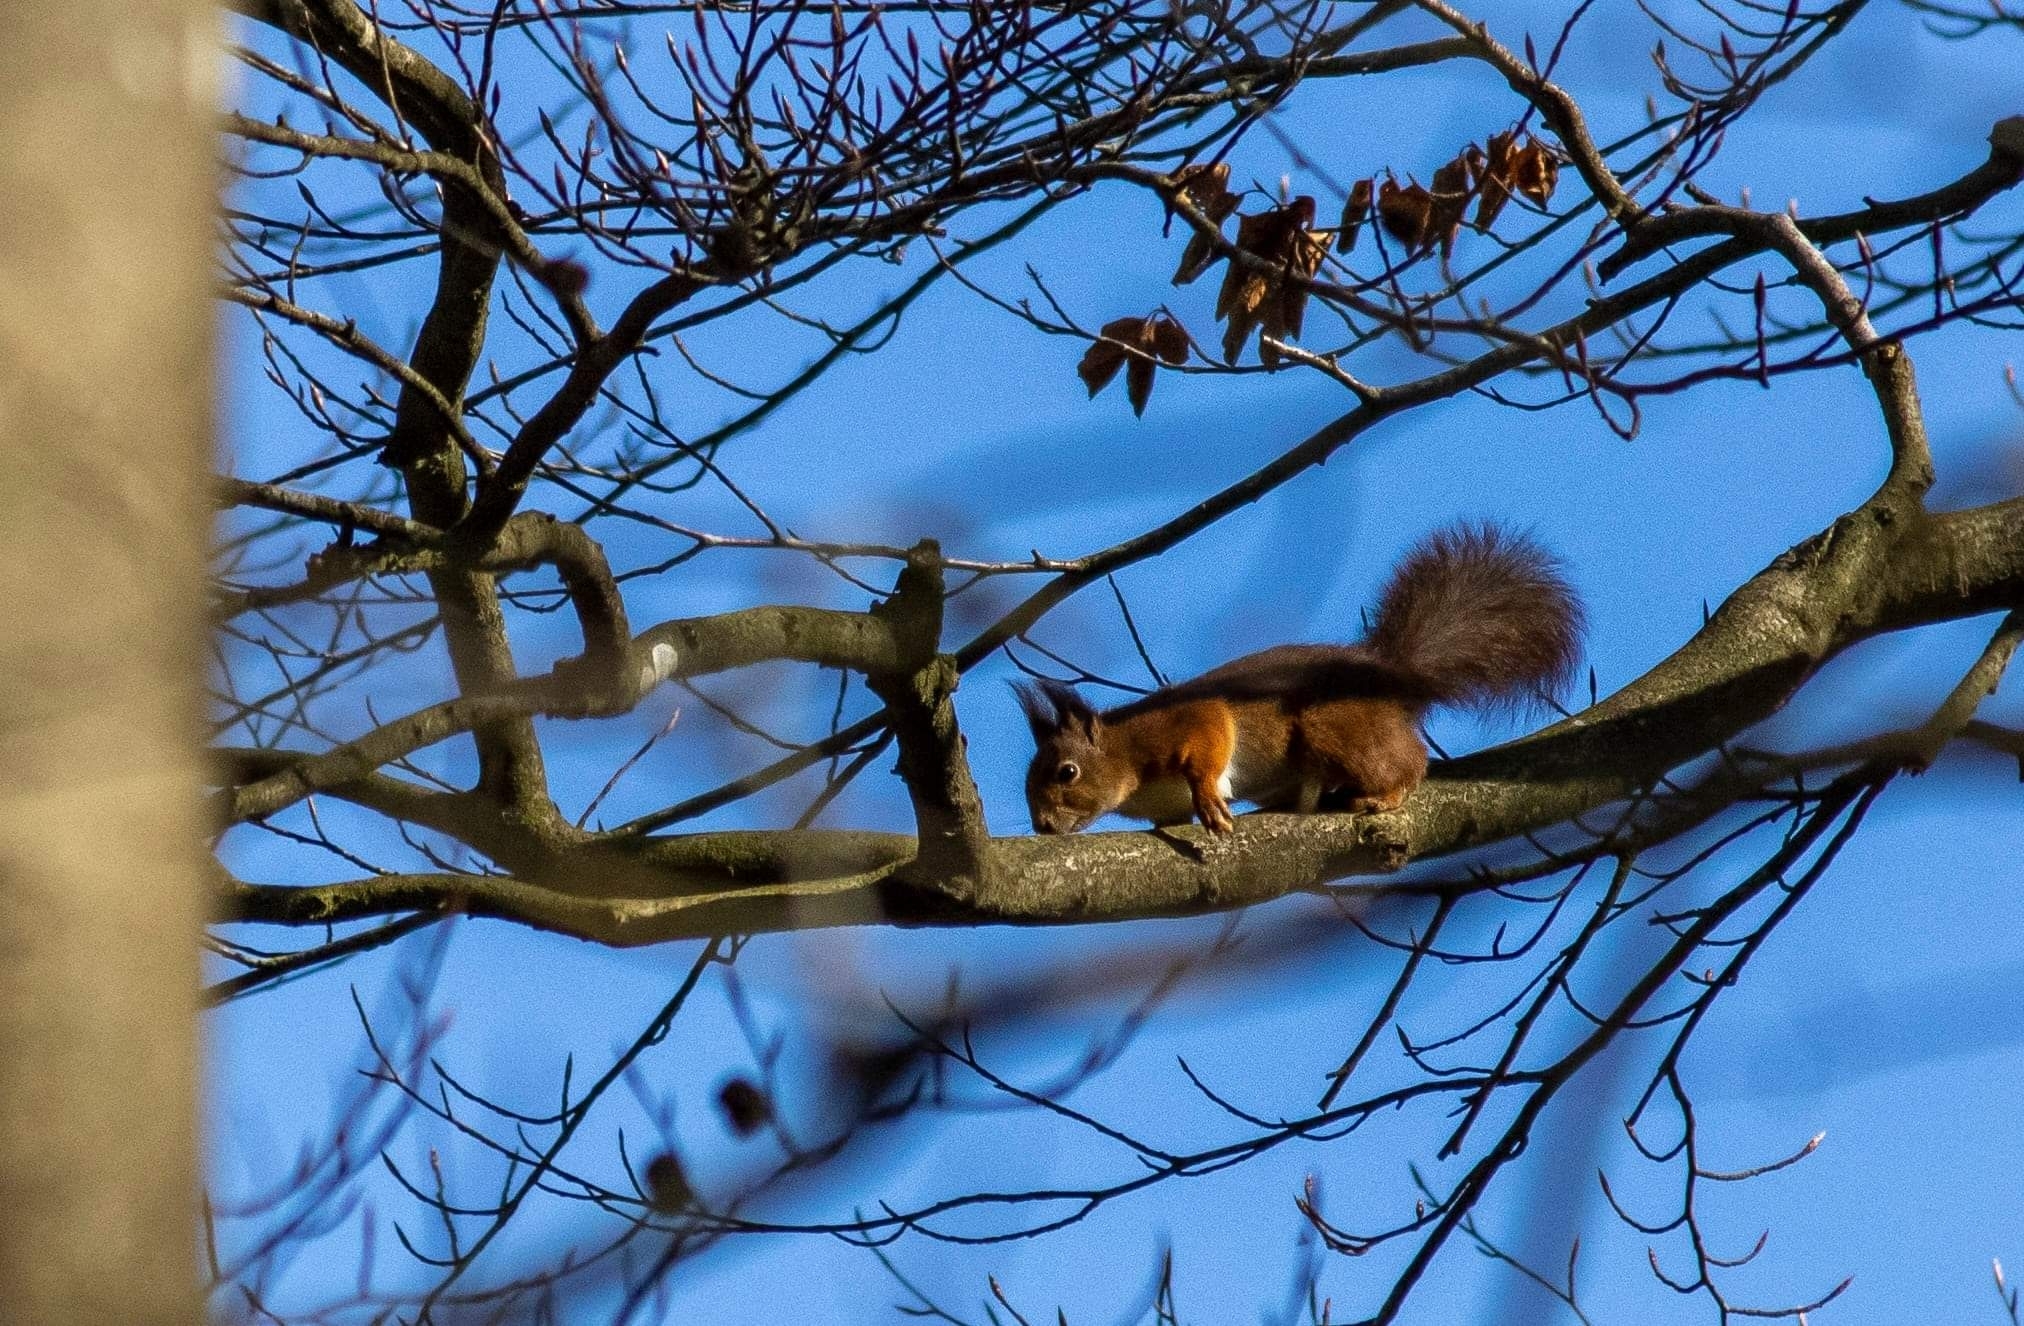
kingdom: Animalia
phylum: Chordata
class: Mammalia
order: Rodentia
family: Sciuridae
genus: Sciurus
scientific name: Sciurus vulgaris
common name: Eurasian red squirrel
